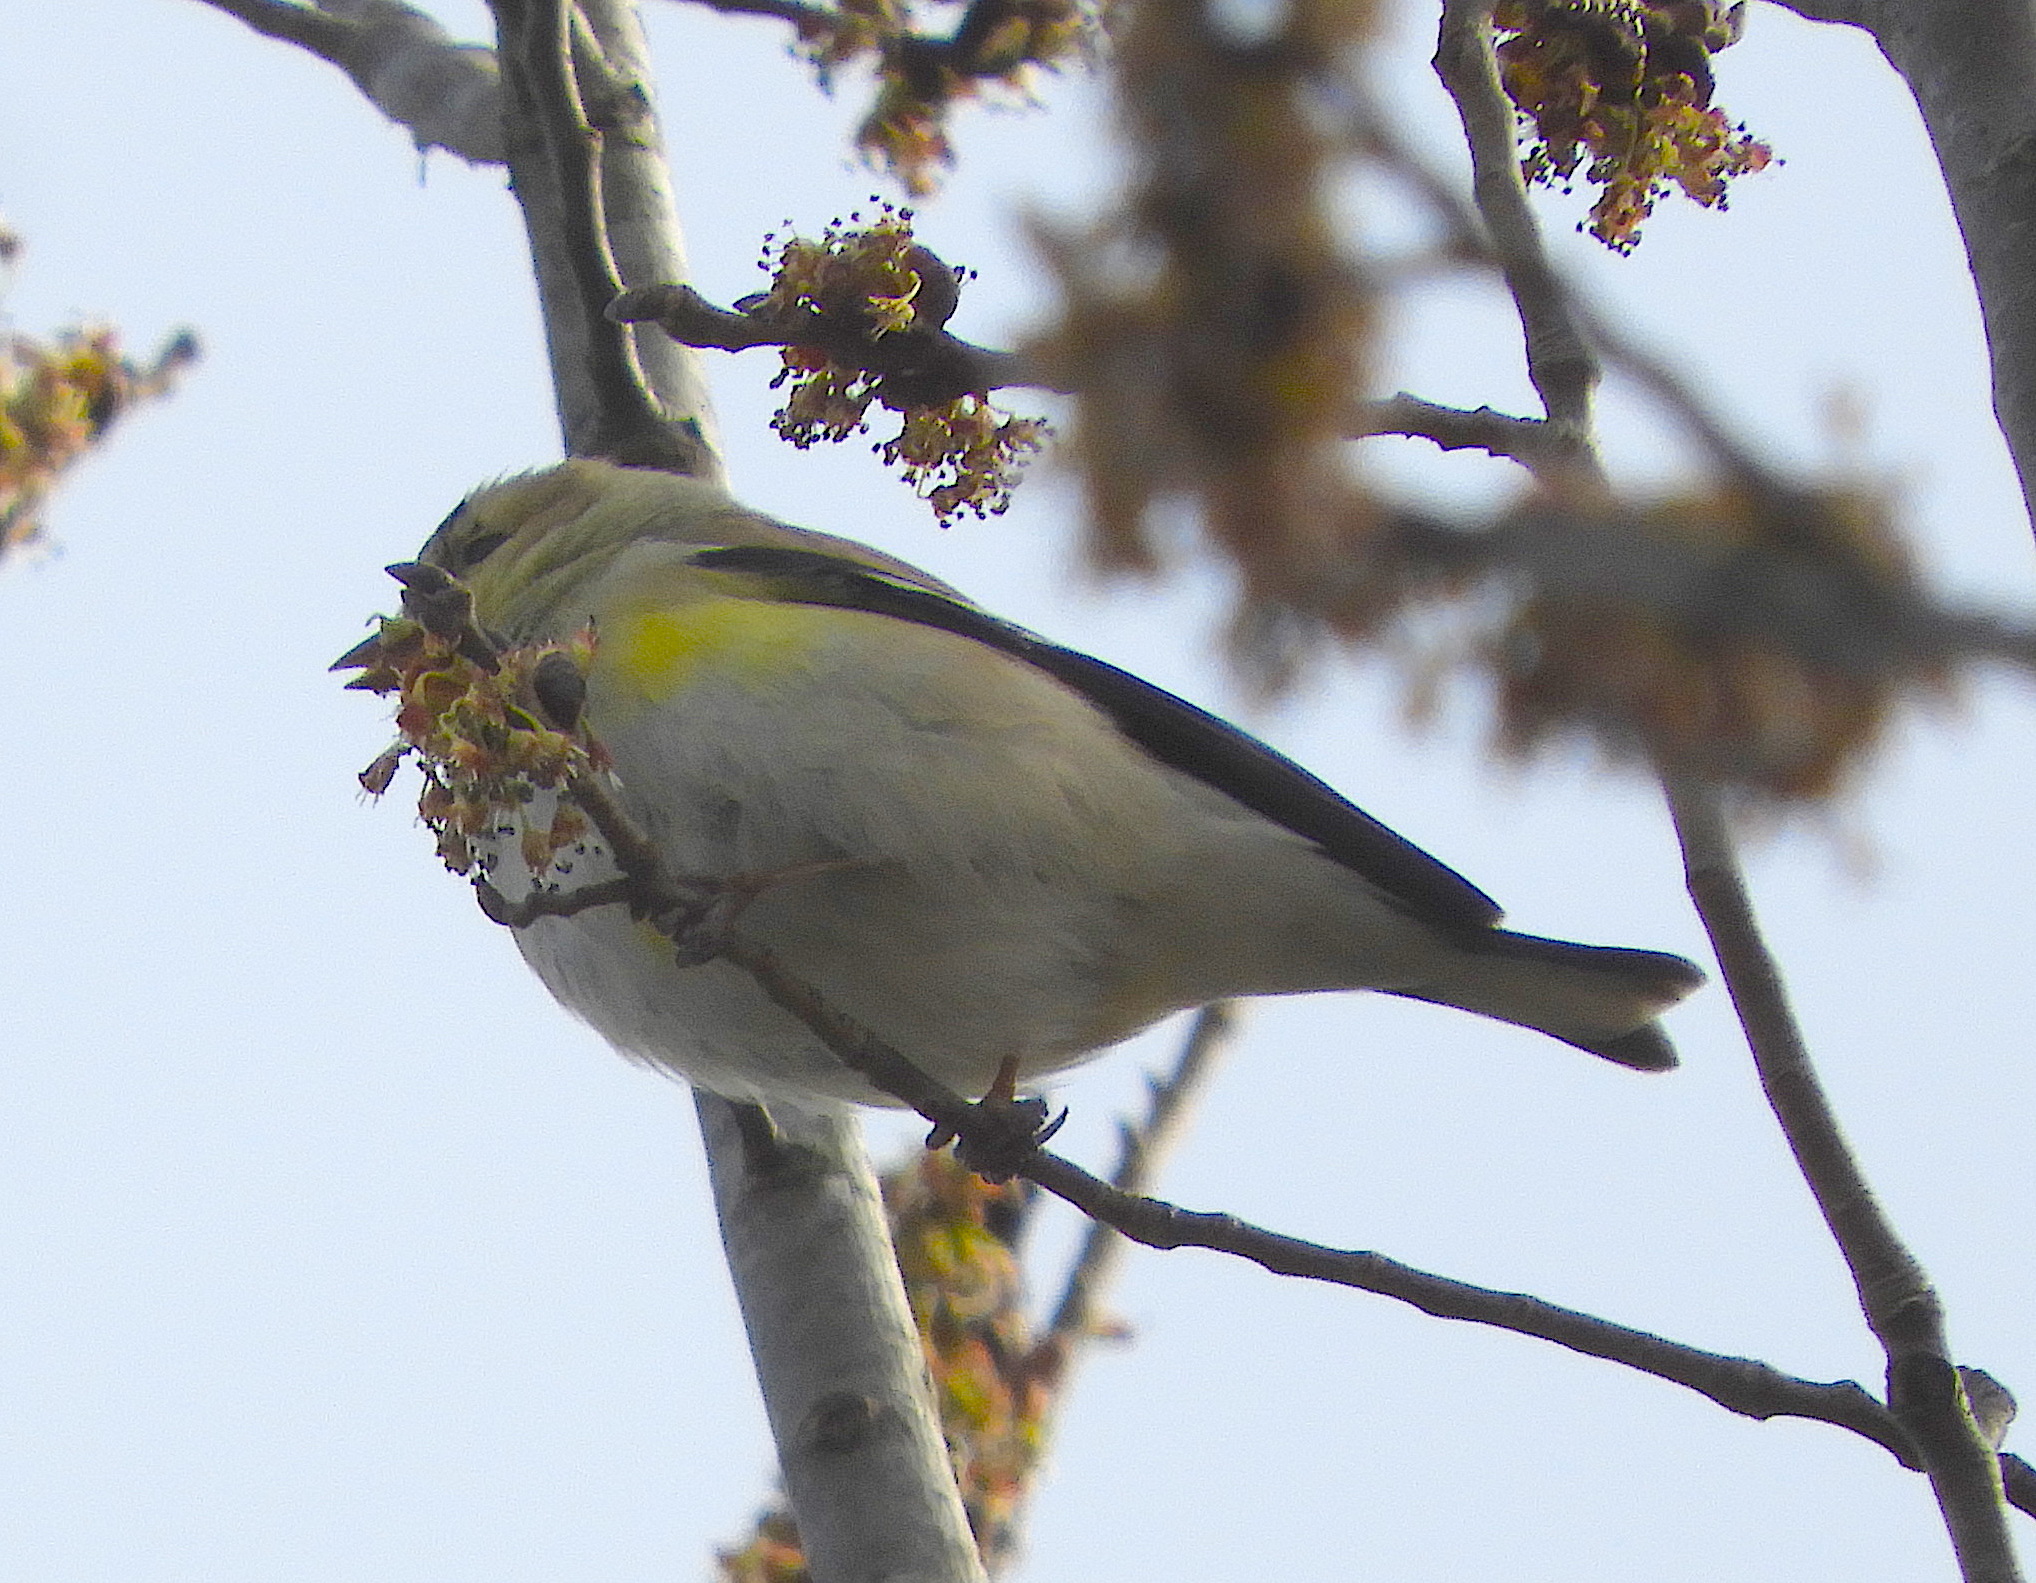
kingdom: Animalia
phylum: Chordata
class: Aves
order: Passeriformes
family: Fringillidae
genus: Spinus
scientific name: Spinus tristis
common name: American goldfinch
